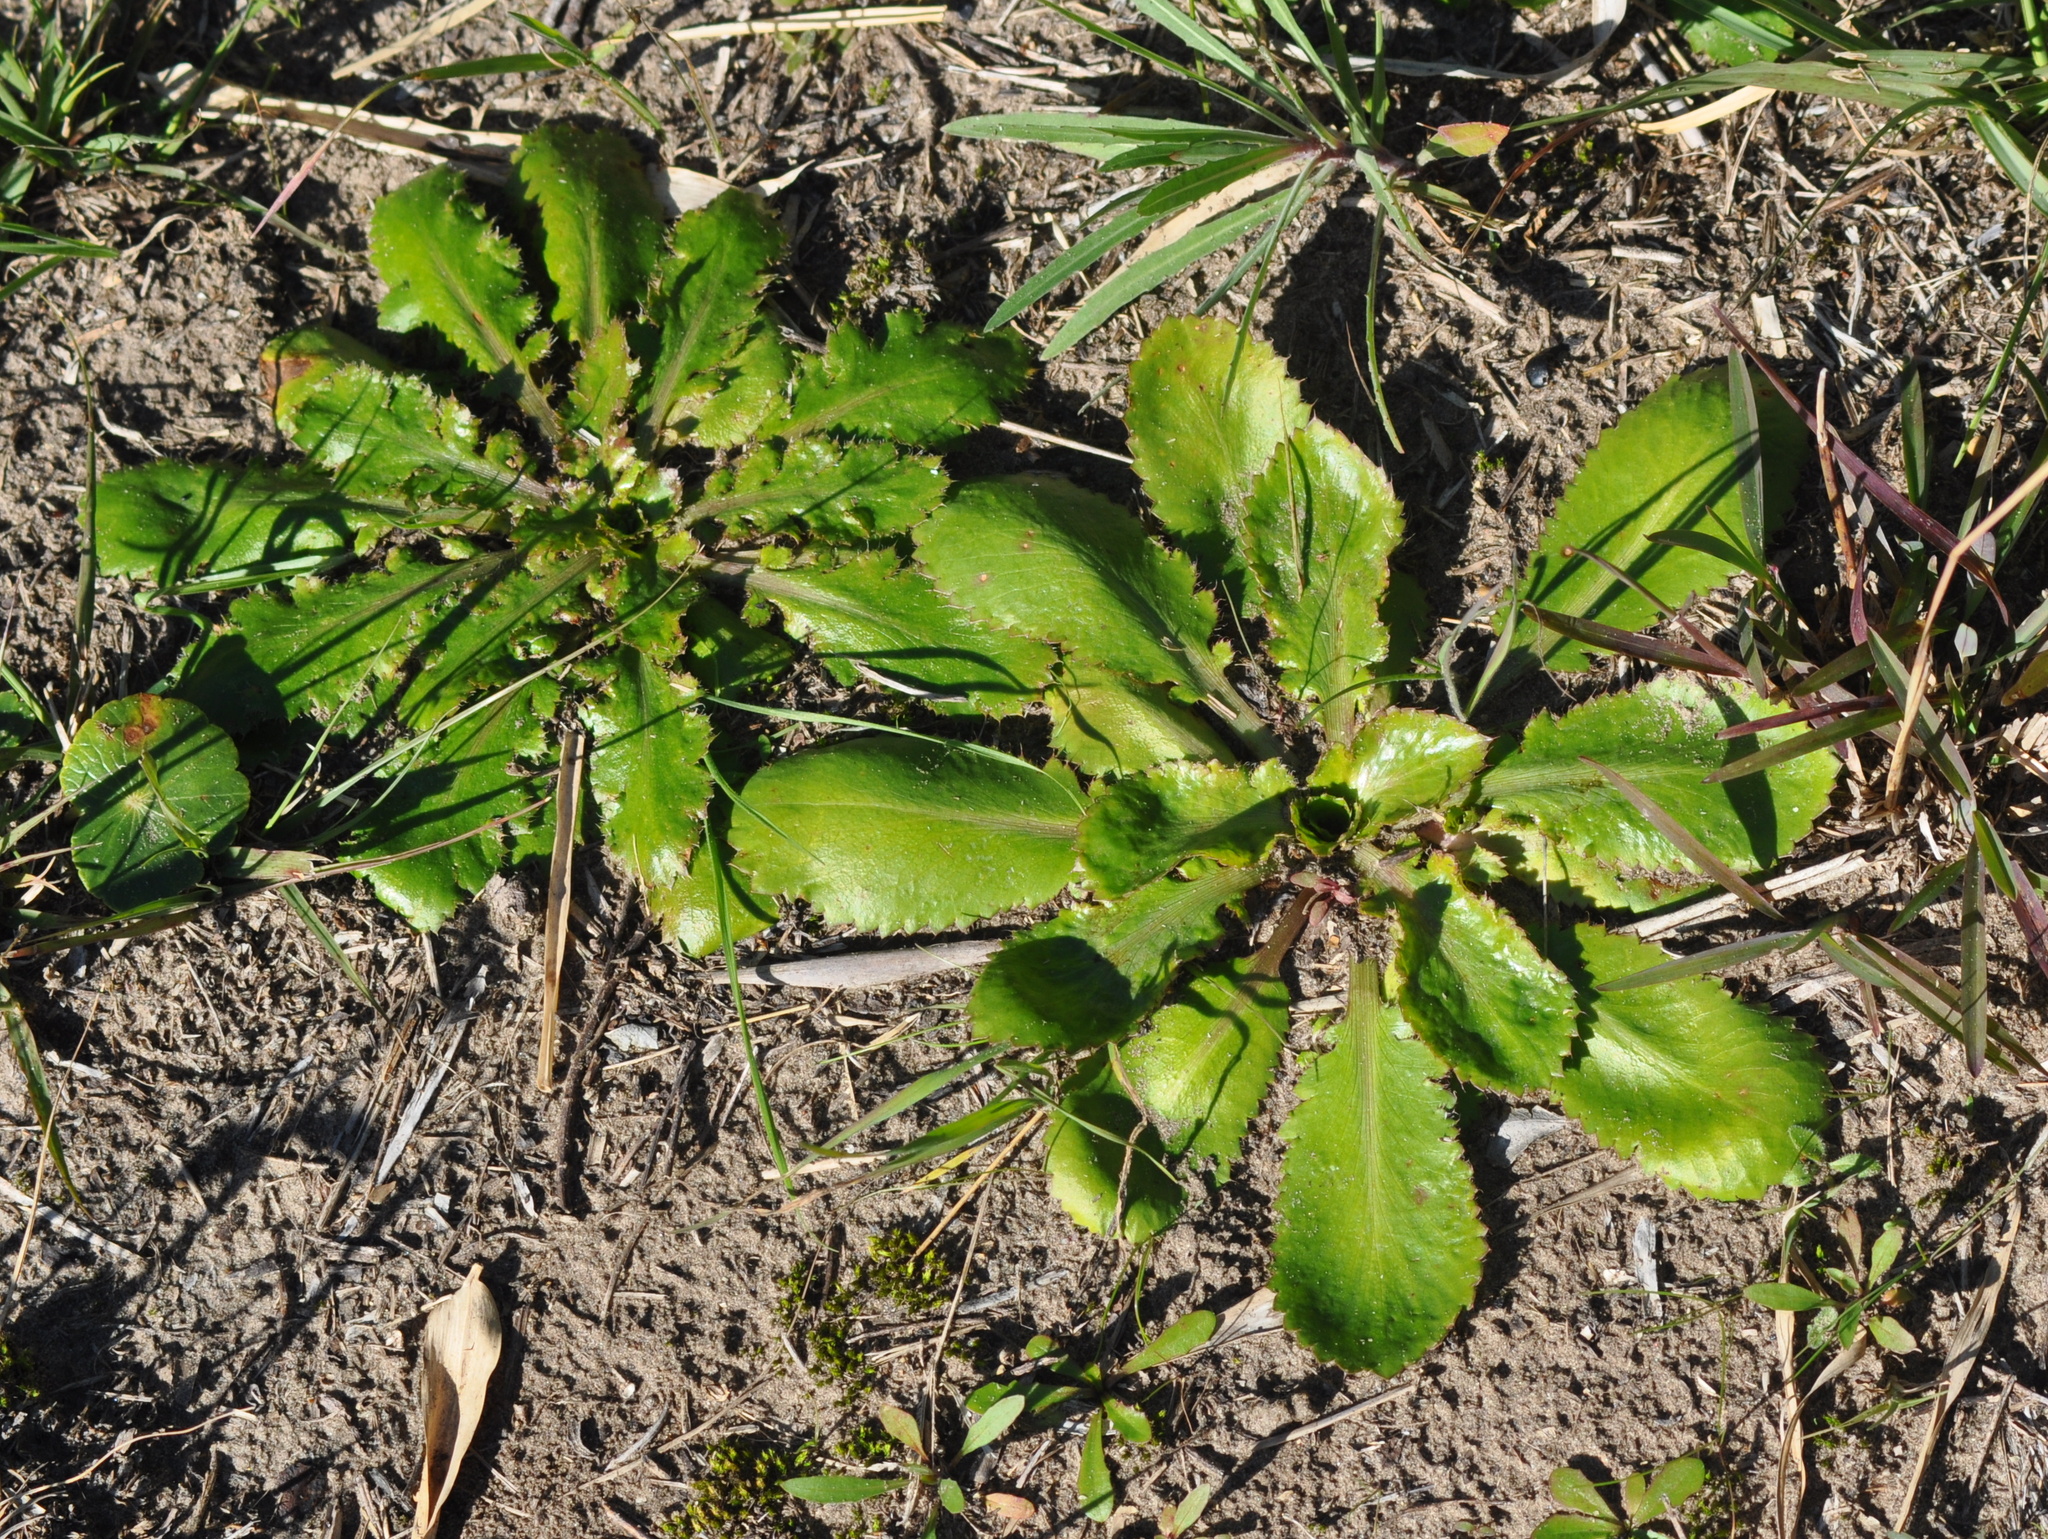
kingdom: Plantae
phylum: Tracheophyta
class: Magnoliopsida
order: Apiales
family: Apiaceae
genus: Eryngium
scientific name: Eryngium nudicaule
